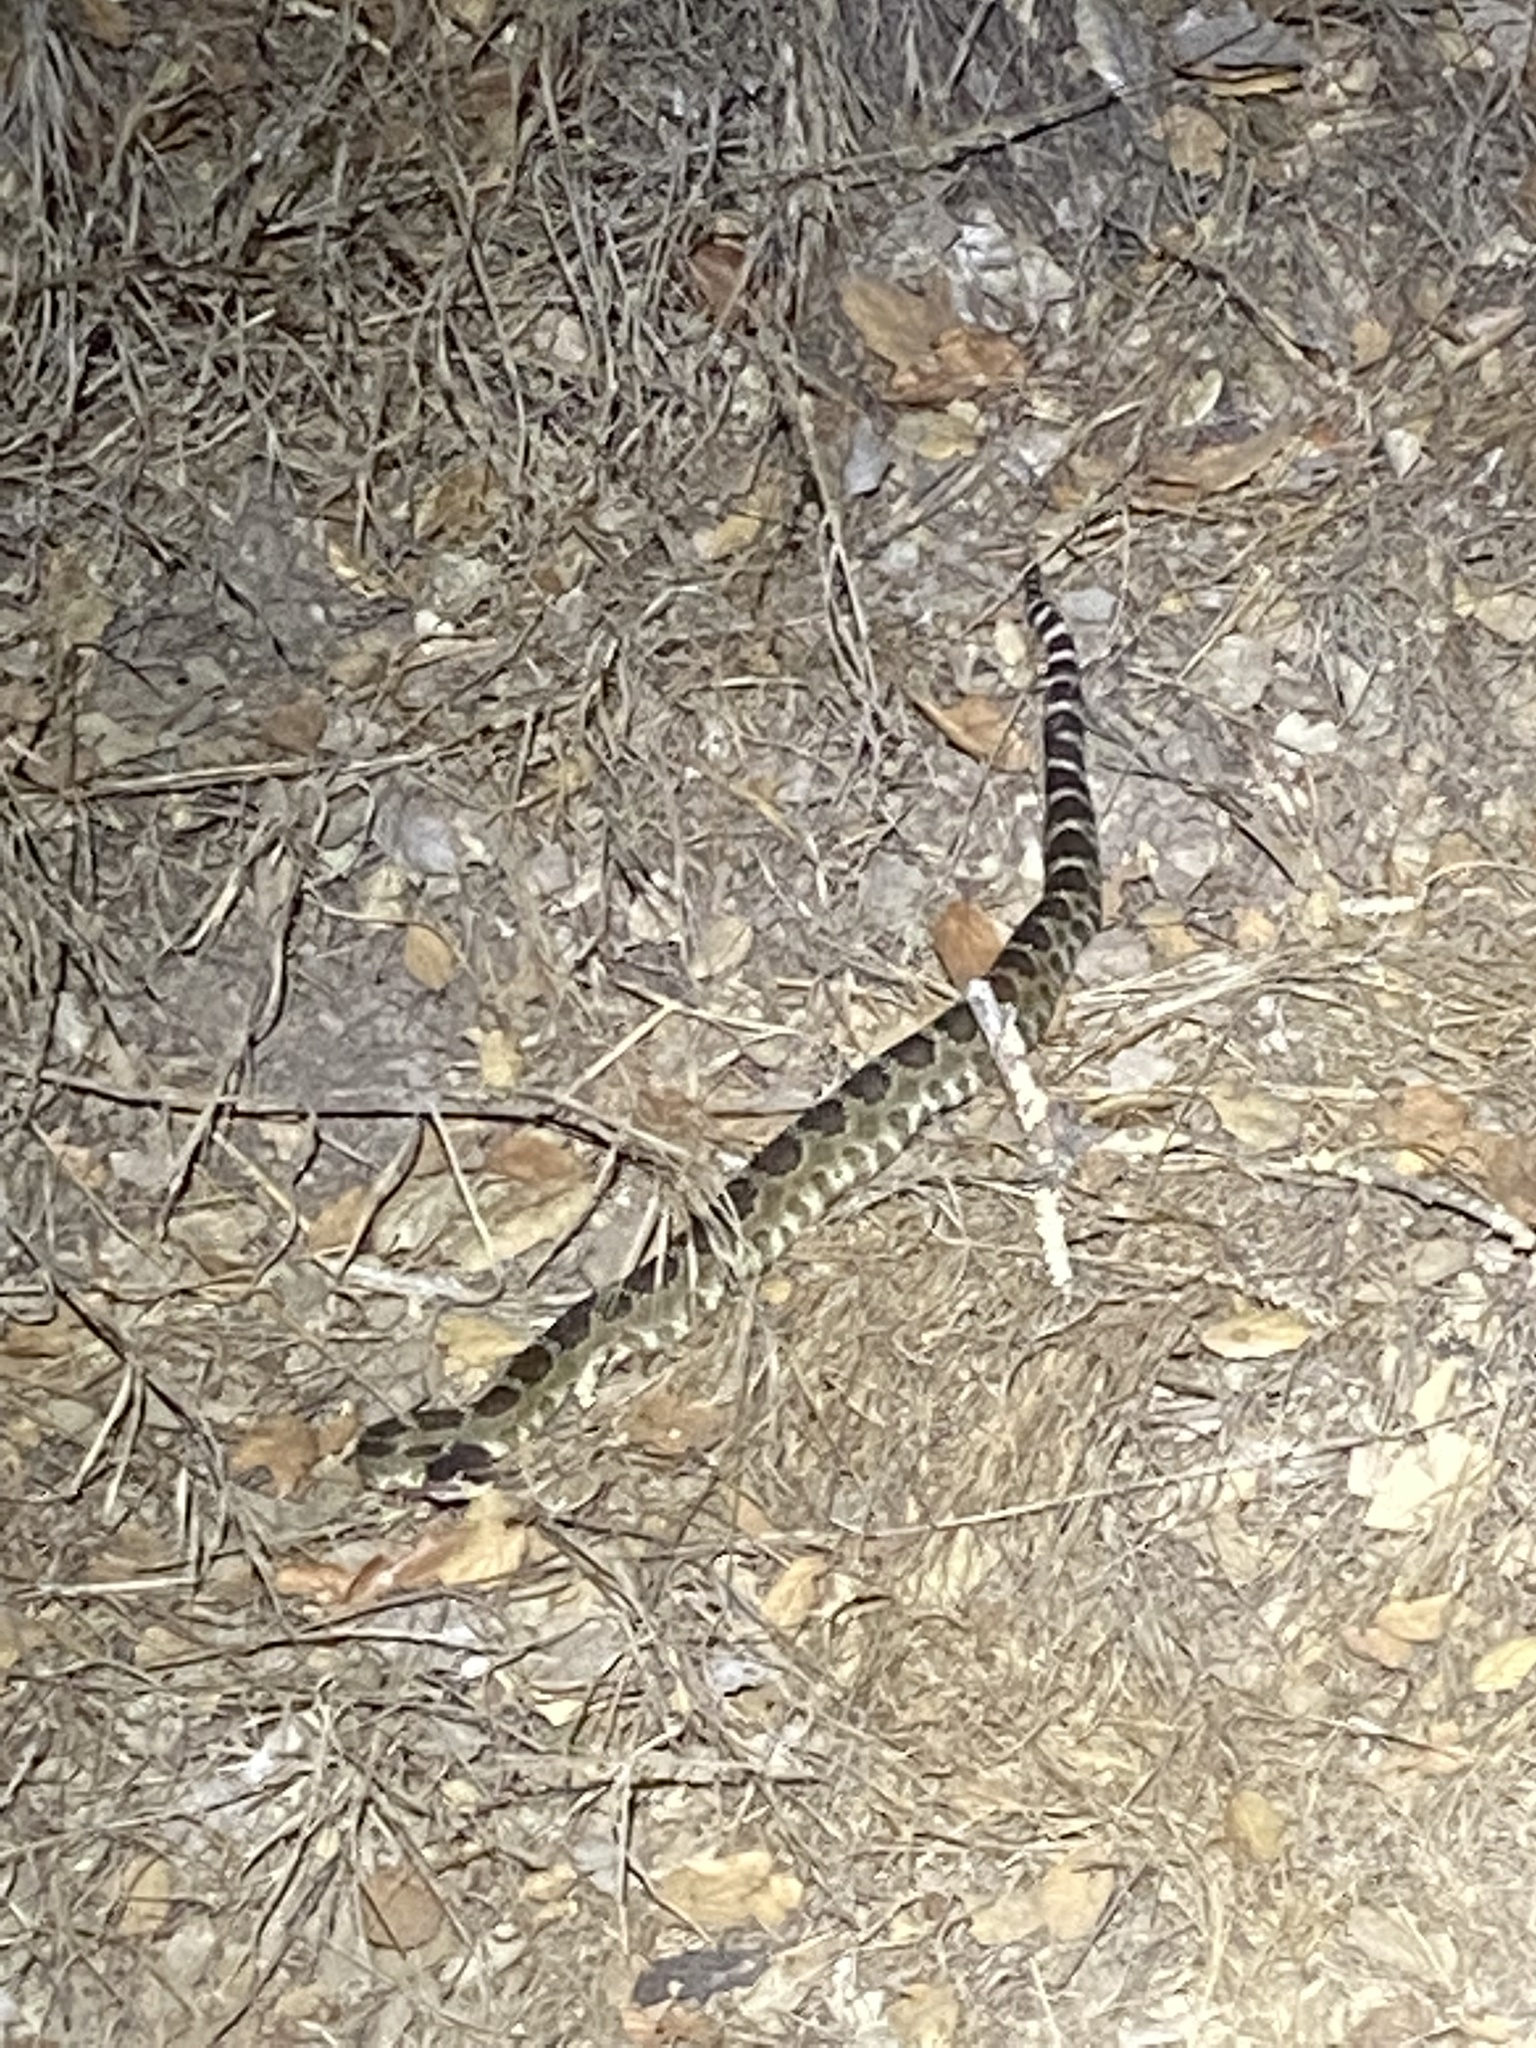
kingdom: Animalia
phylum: Chordata
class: Squamata
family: Viperidae
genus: Crotalus
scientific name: Crotalus oreganus
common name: Abyssus
